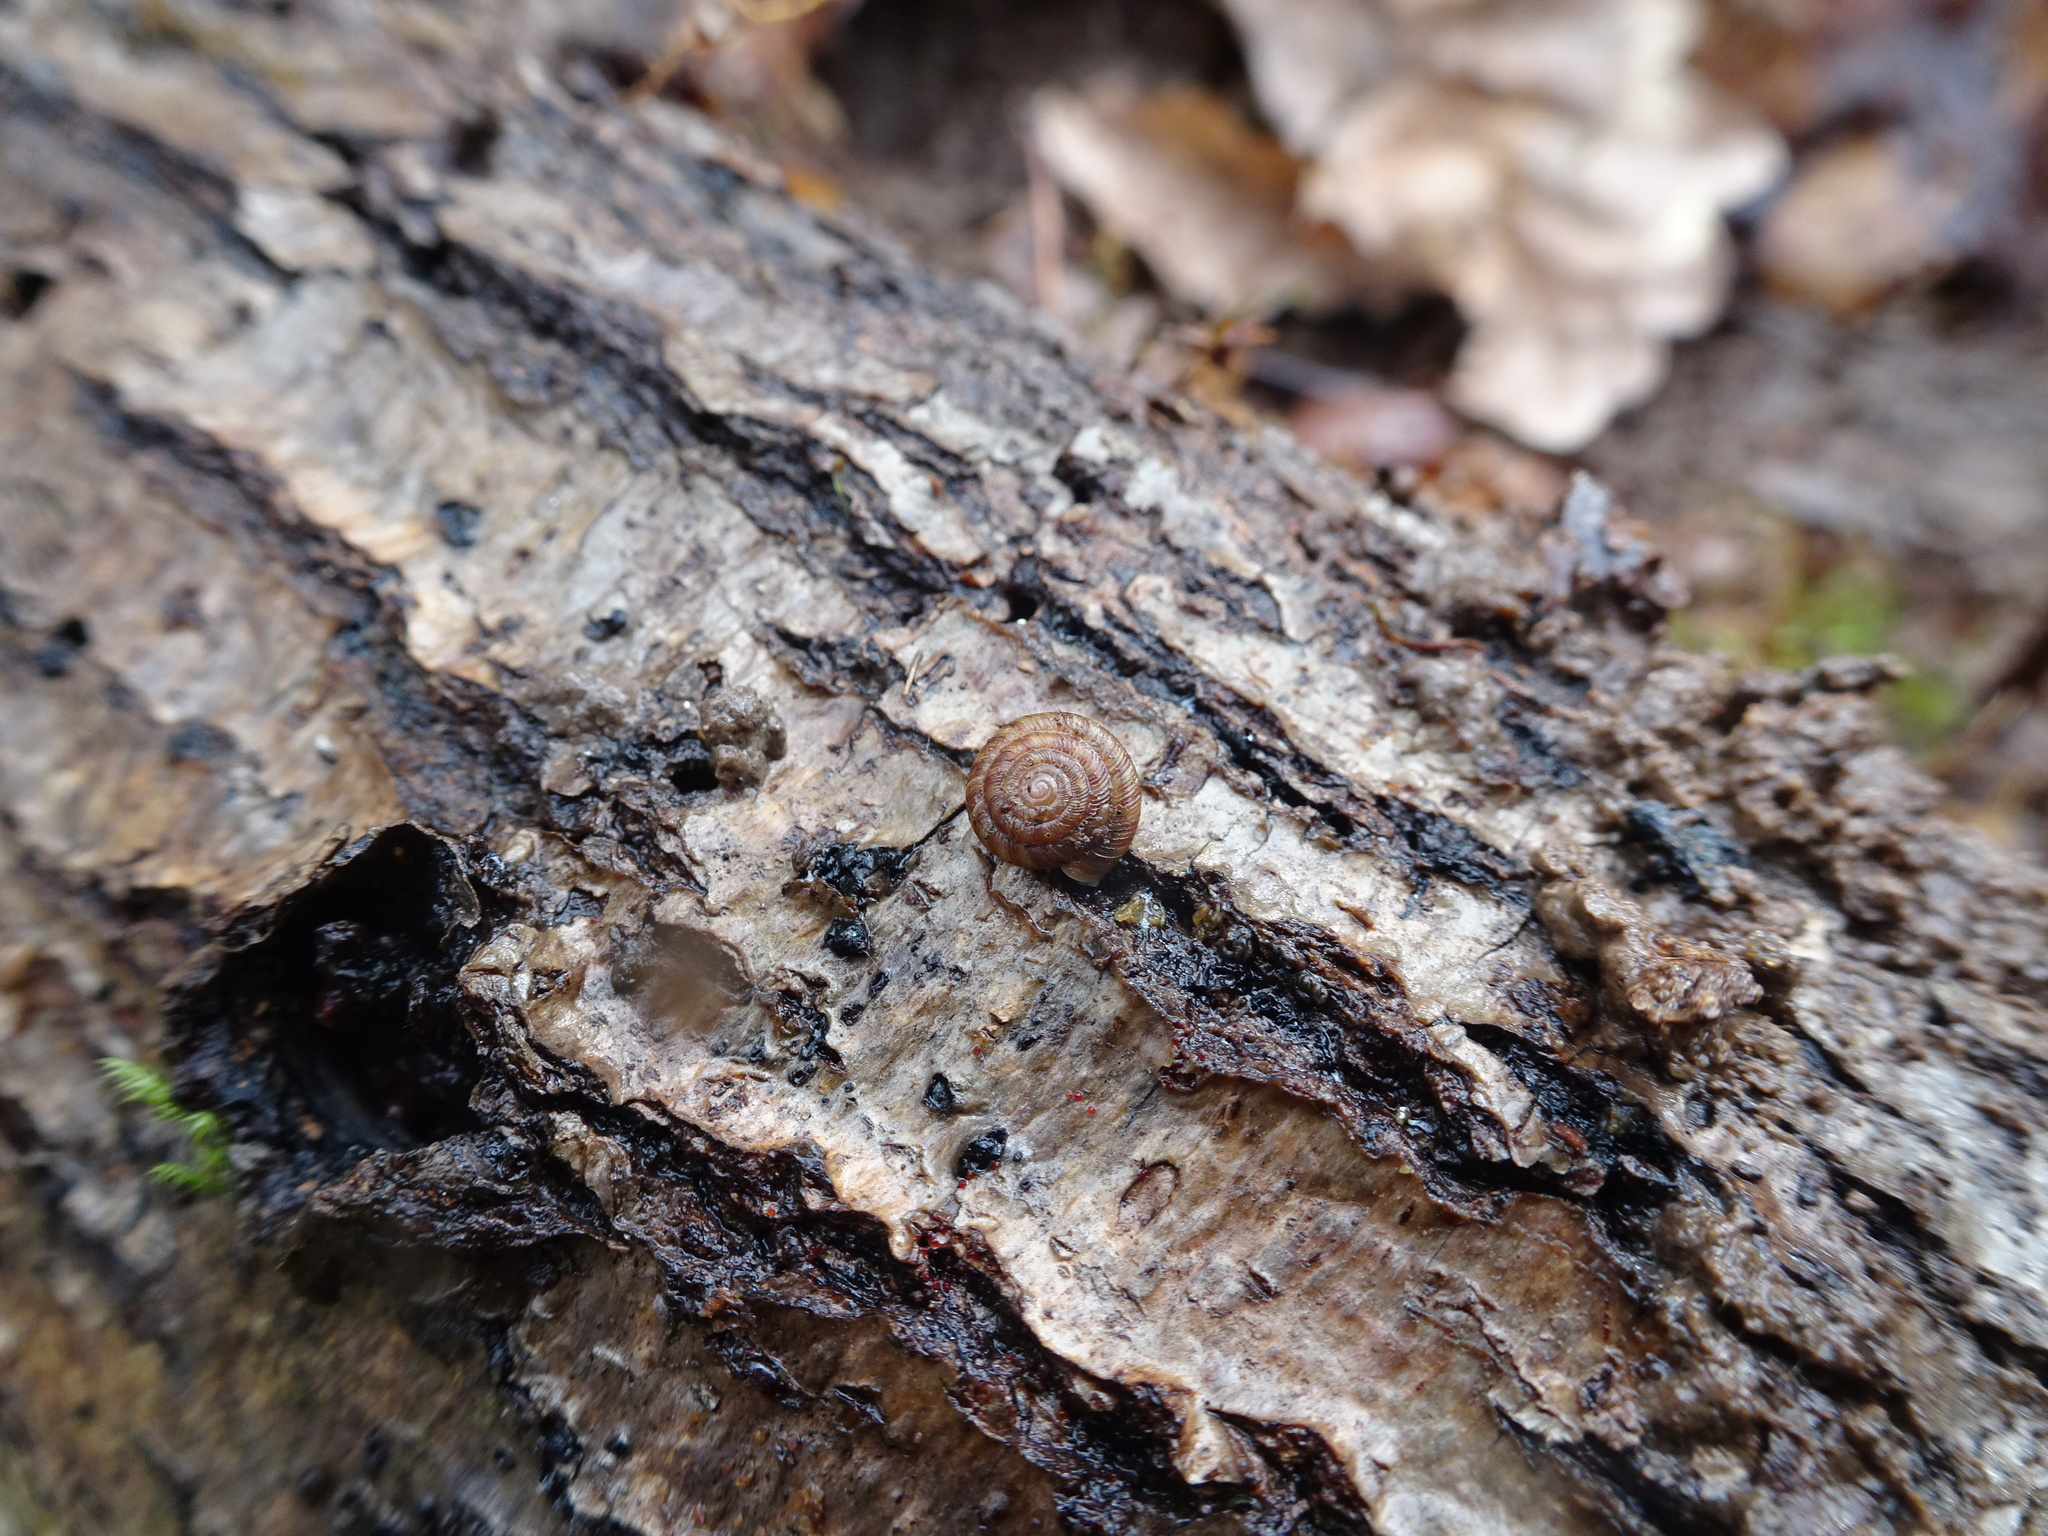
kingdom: Animalia
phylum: Mollusca
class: Gastropoda
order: Stylommatophora
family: Discidae
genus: Discus
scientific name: Discus rotundatus
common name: Rounded snail
